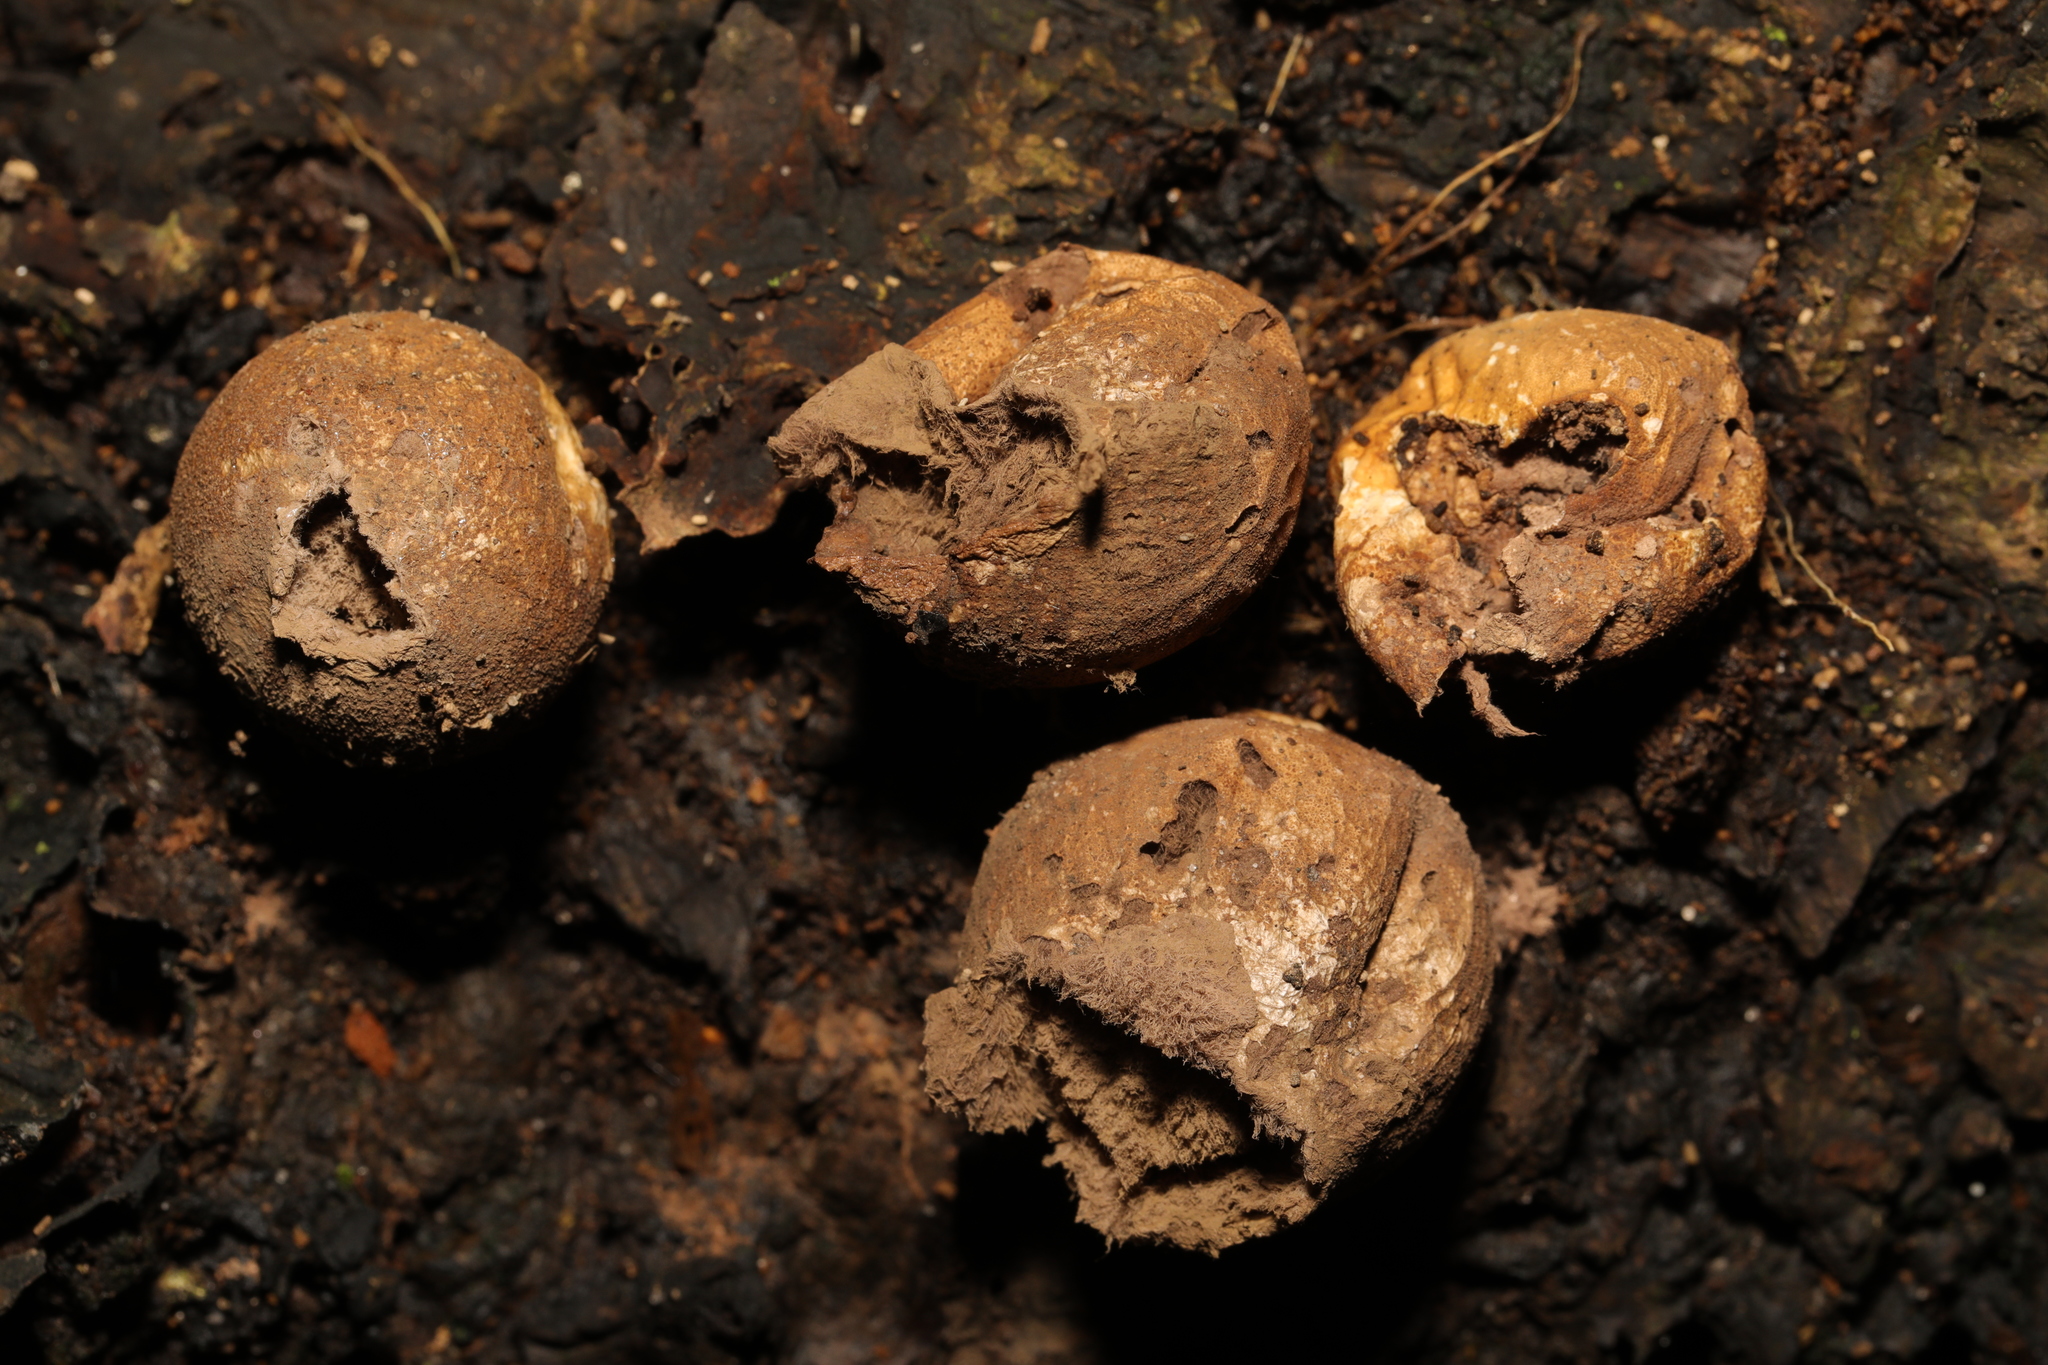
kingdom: Fungi
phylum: Basidiomycota
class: Agaricomycetes
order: Agaricales
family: Lycoperdaceae
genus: Apioperdon
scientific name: Apioperdon pyriforme
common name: Pear-shaped puffball
